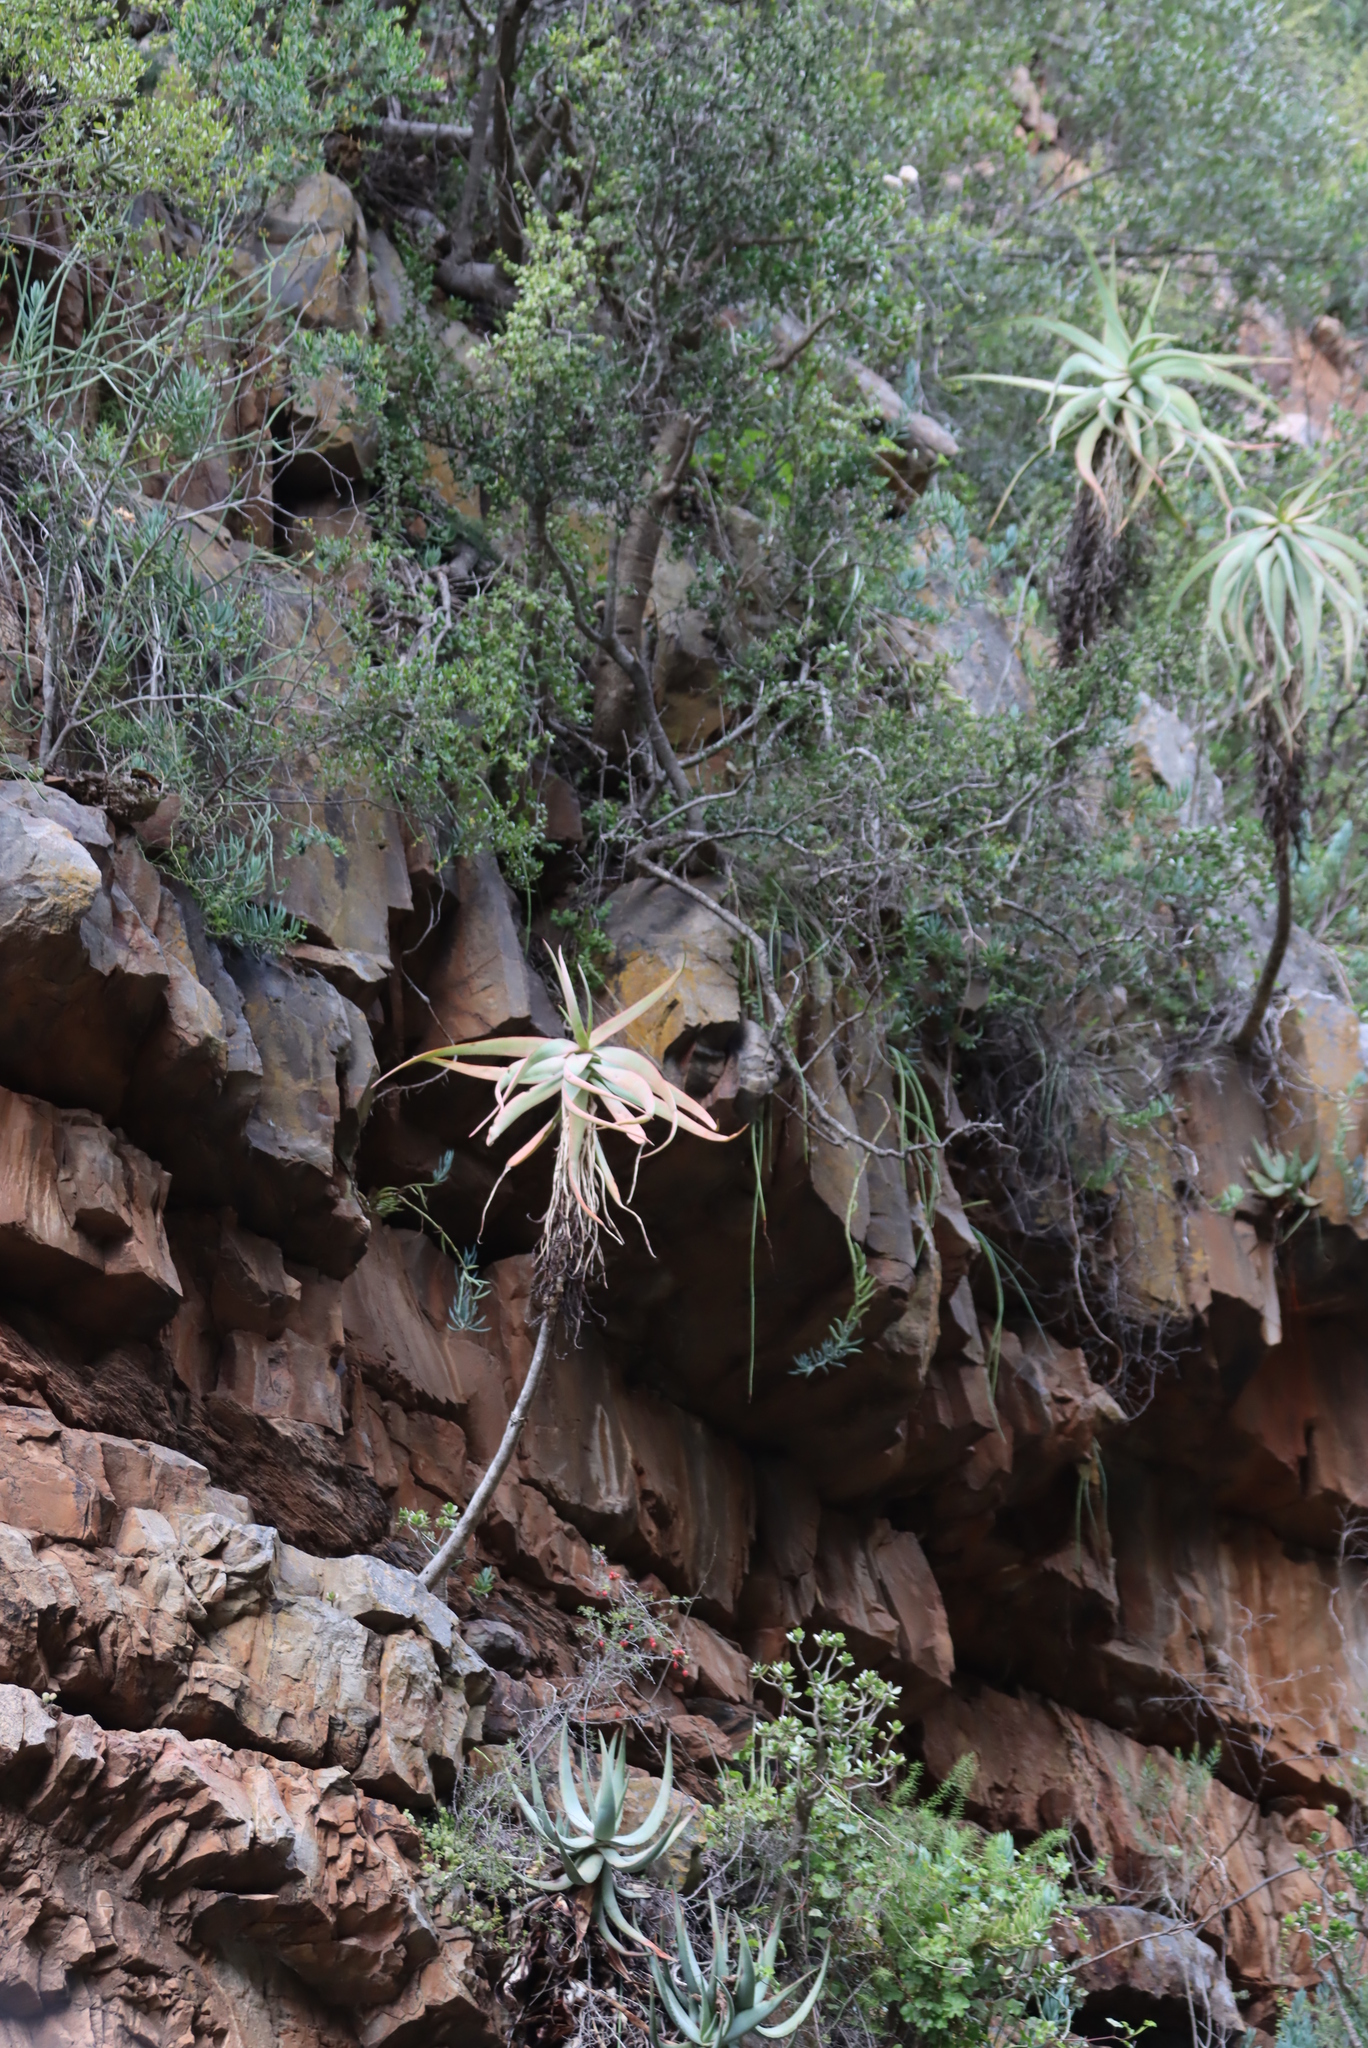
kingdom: Plantae
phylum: Tracheophyta
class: Liliopsida
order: Asparagales
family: Asphodelaceae
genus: Aloe
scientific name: Aloe comptonii
